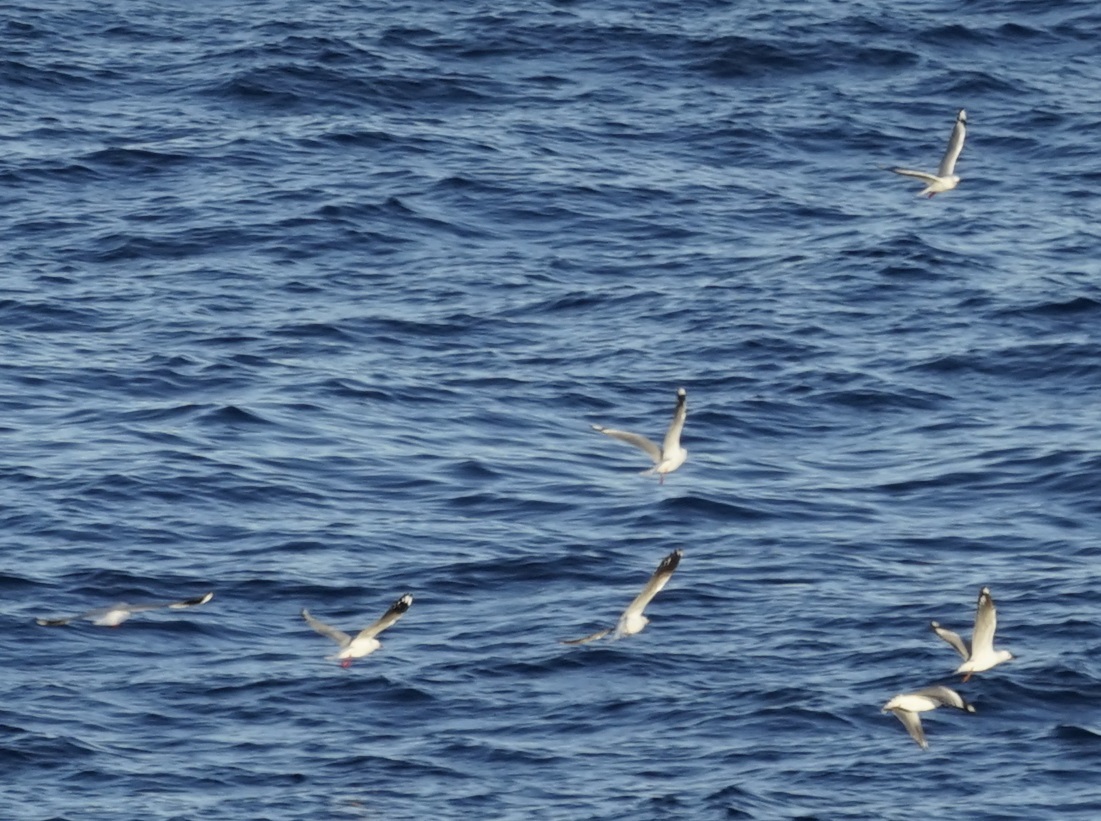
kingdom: Animalia
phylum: Chordata
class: Aves
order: Charadriiformes
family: Laridae
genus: Chroicocephalus
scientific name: Chroicocephalus novaehollandiae
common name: Silver gull
